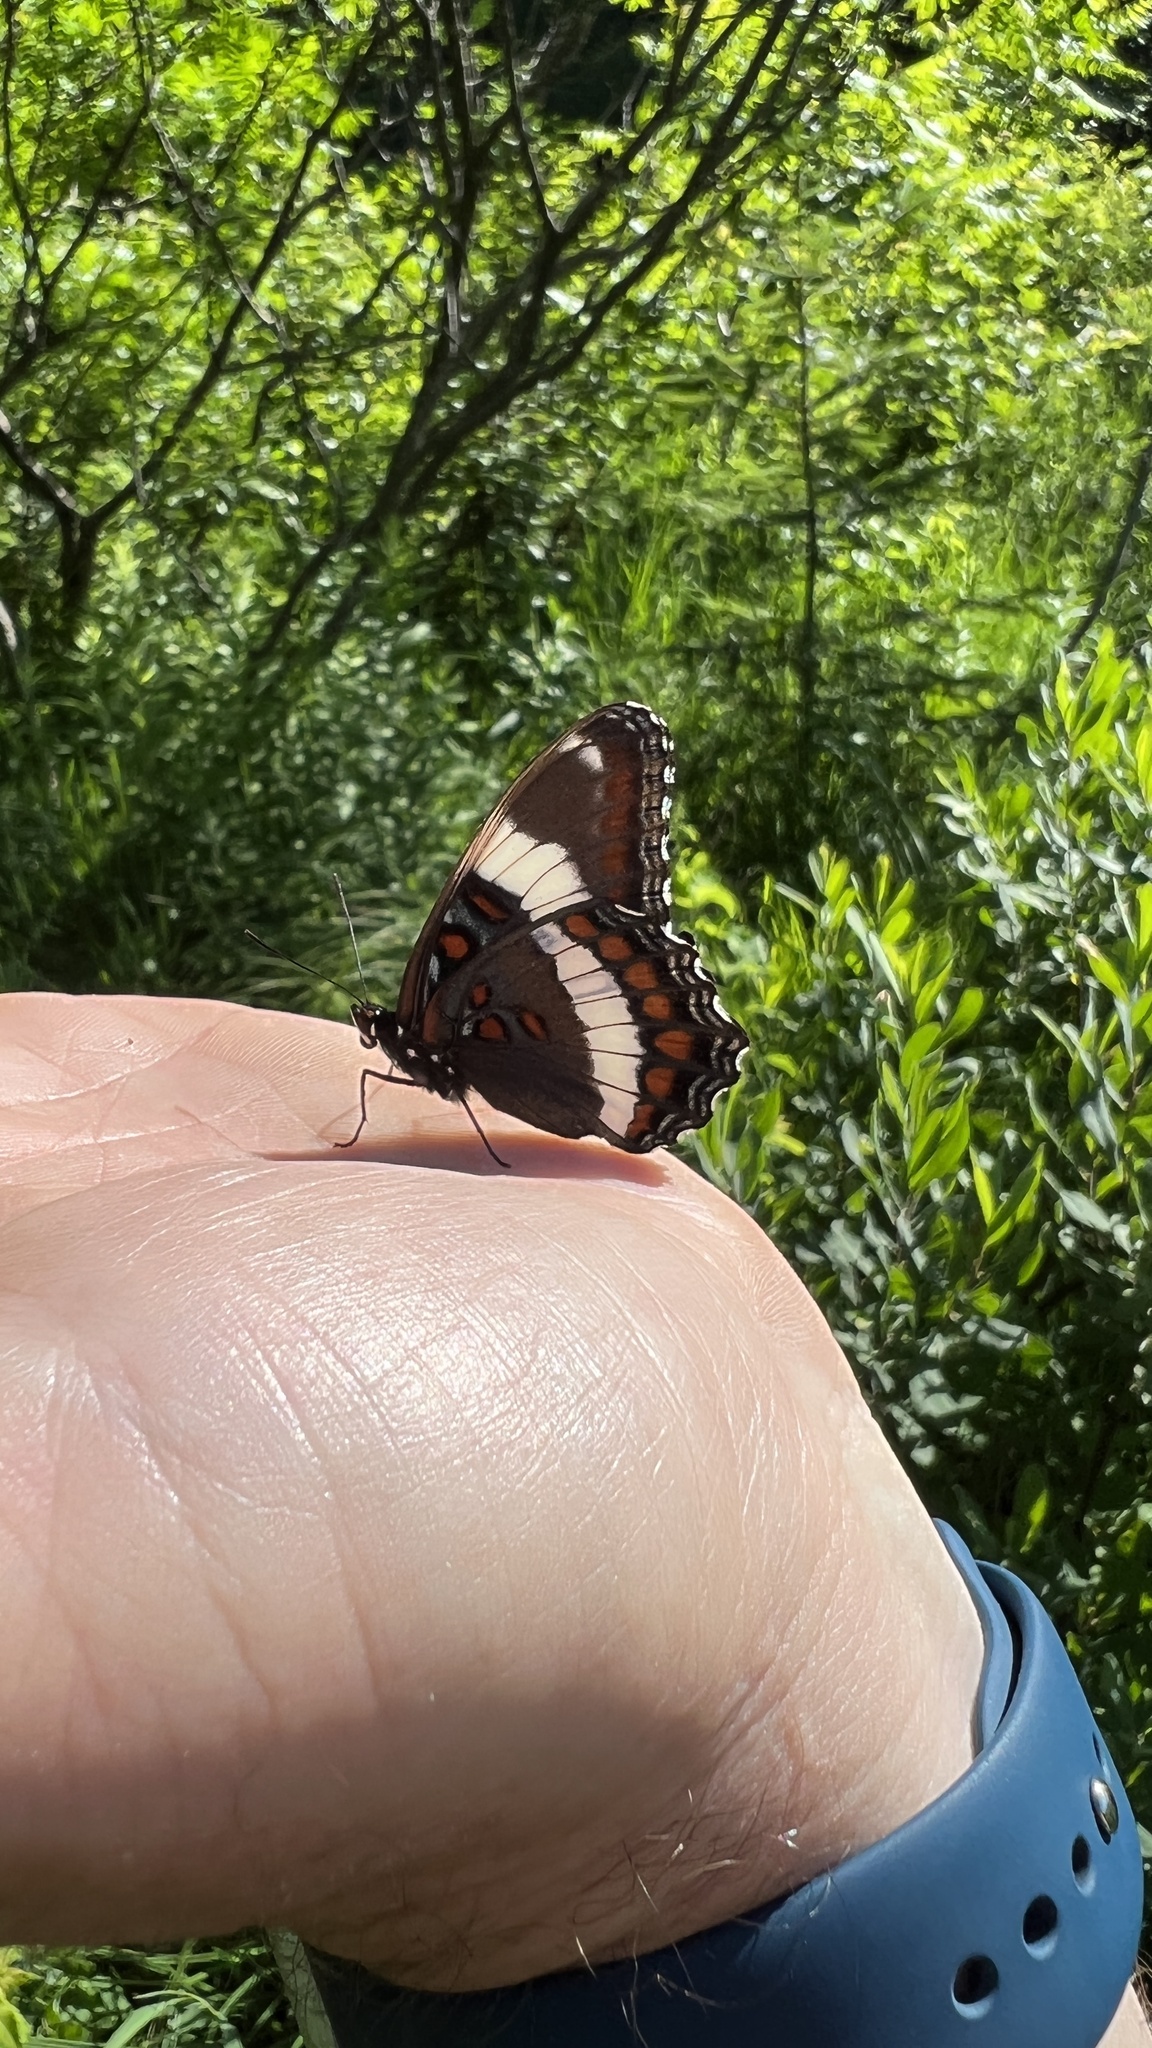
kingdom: Animalia
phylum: Arthropoda
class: Insecta
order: Lepidoptera
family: Nymphalidae
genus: Limenitis
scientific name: Limenitis arthemis
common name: Red-spotted admiral
